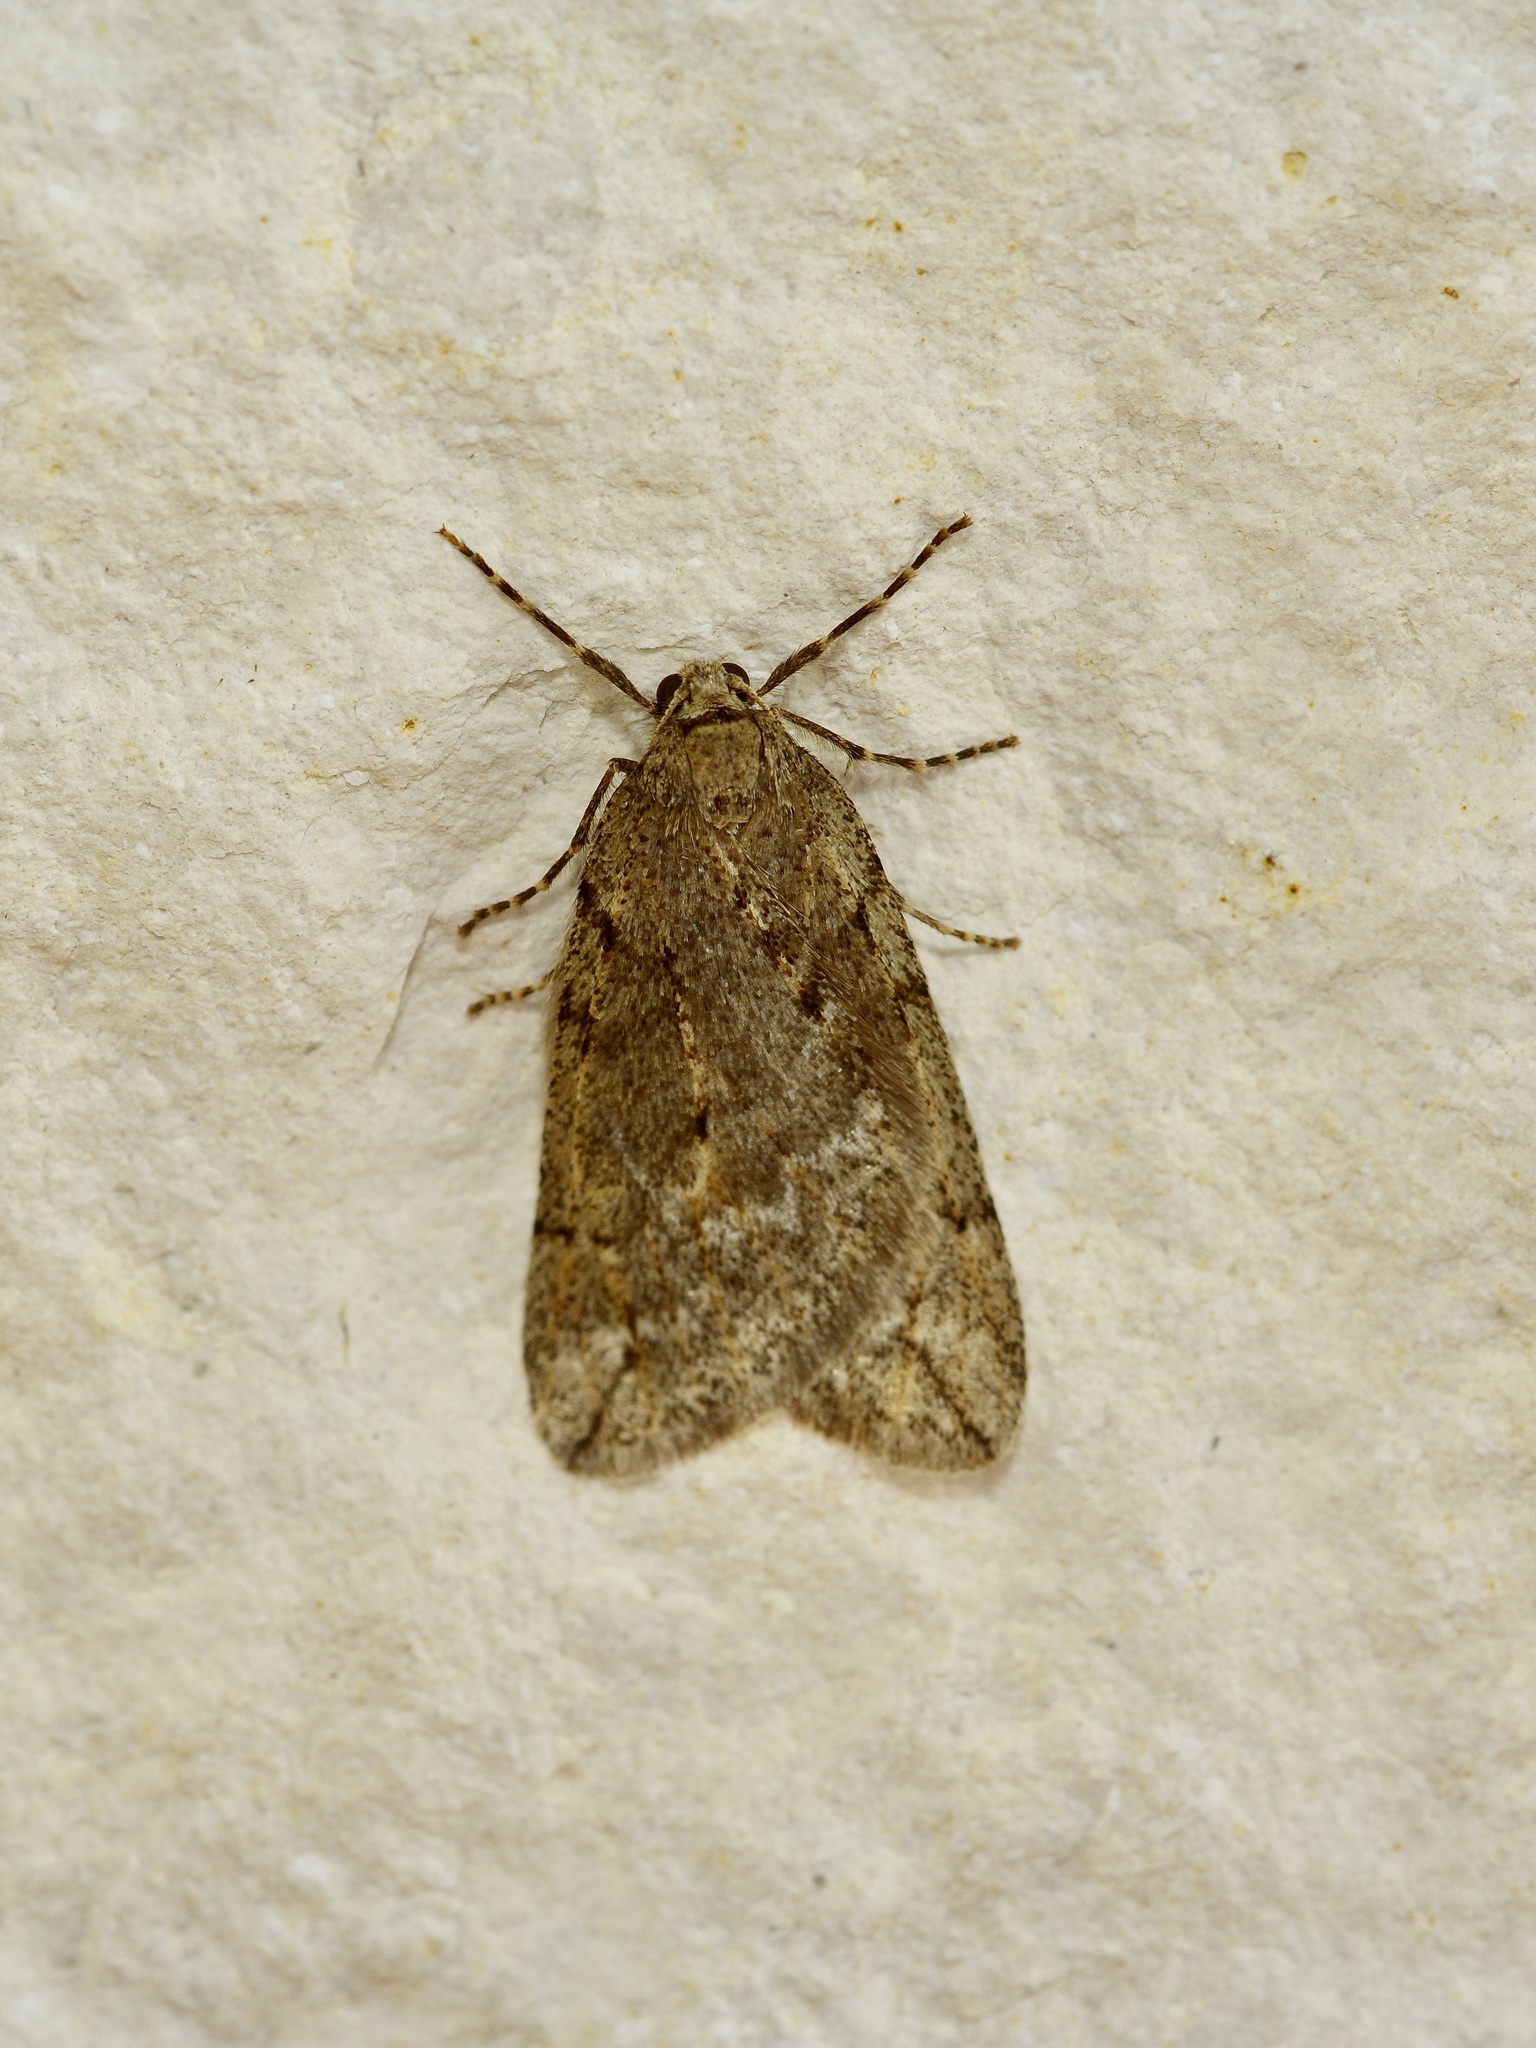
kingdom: Animalia
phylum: Arthropoda
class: Insecta
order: Lepidoptera
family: Geometridae
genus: Paleacrita
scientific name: Paleacrita vernata
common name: Spring cankerworm
